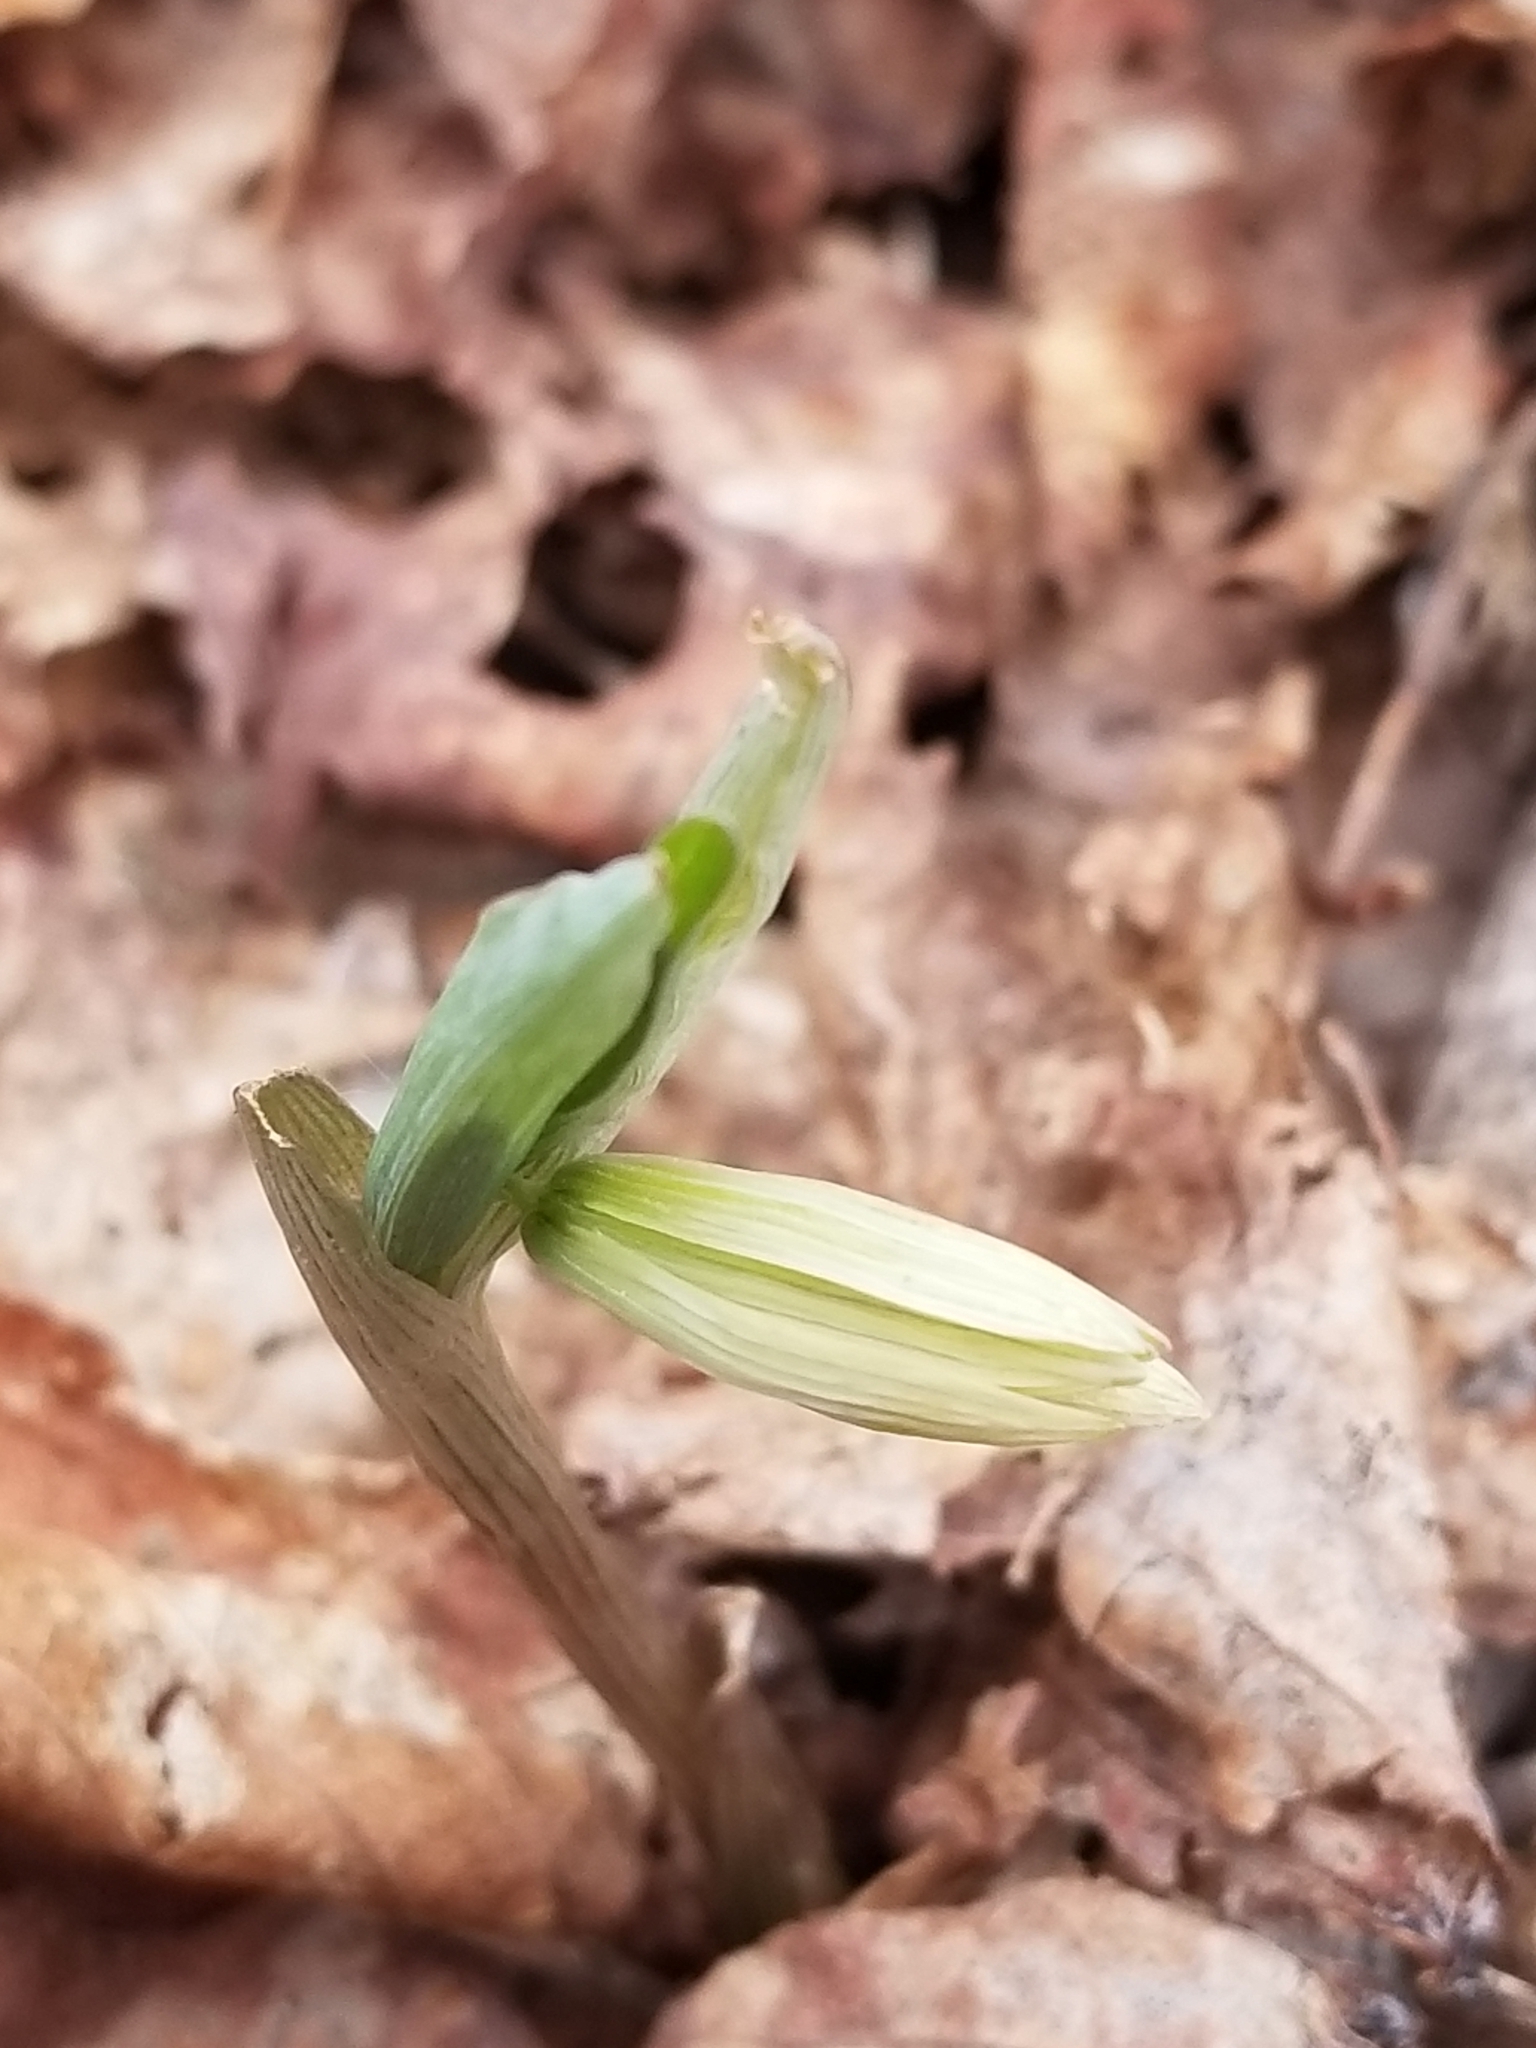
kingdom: Plantae
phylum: Tracheophyta
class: Liliopsida
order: Liliales
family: Colchicaceae
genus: Uvularia
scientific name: Uvularia sessilifolia
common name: Straw-lily
